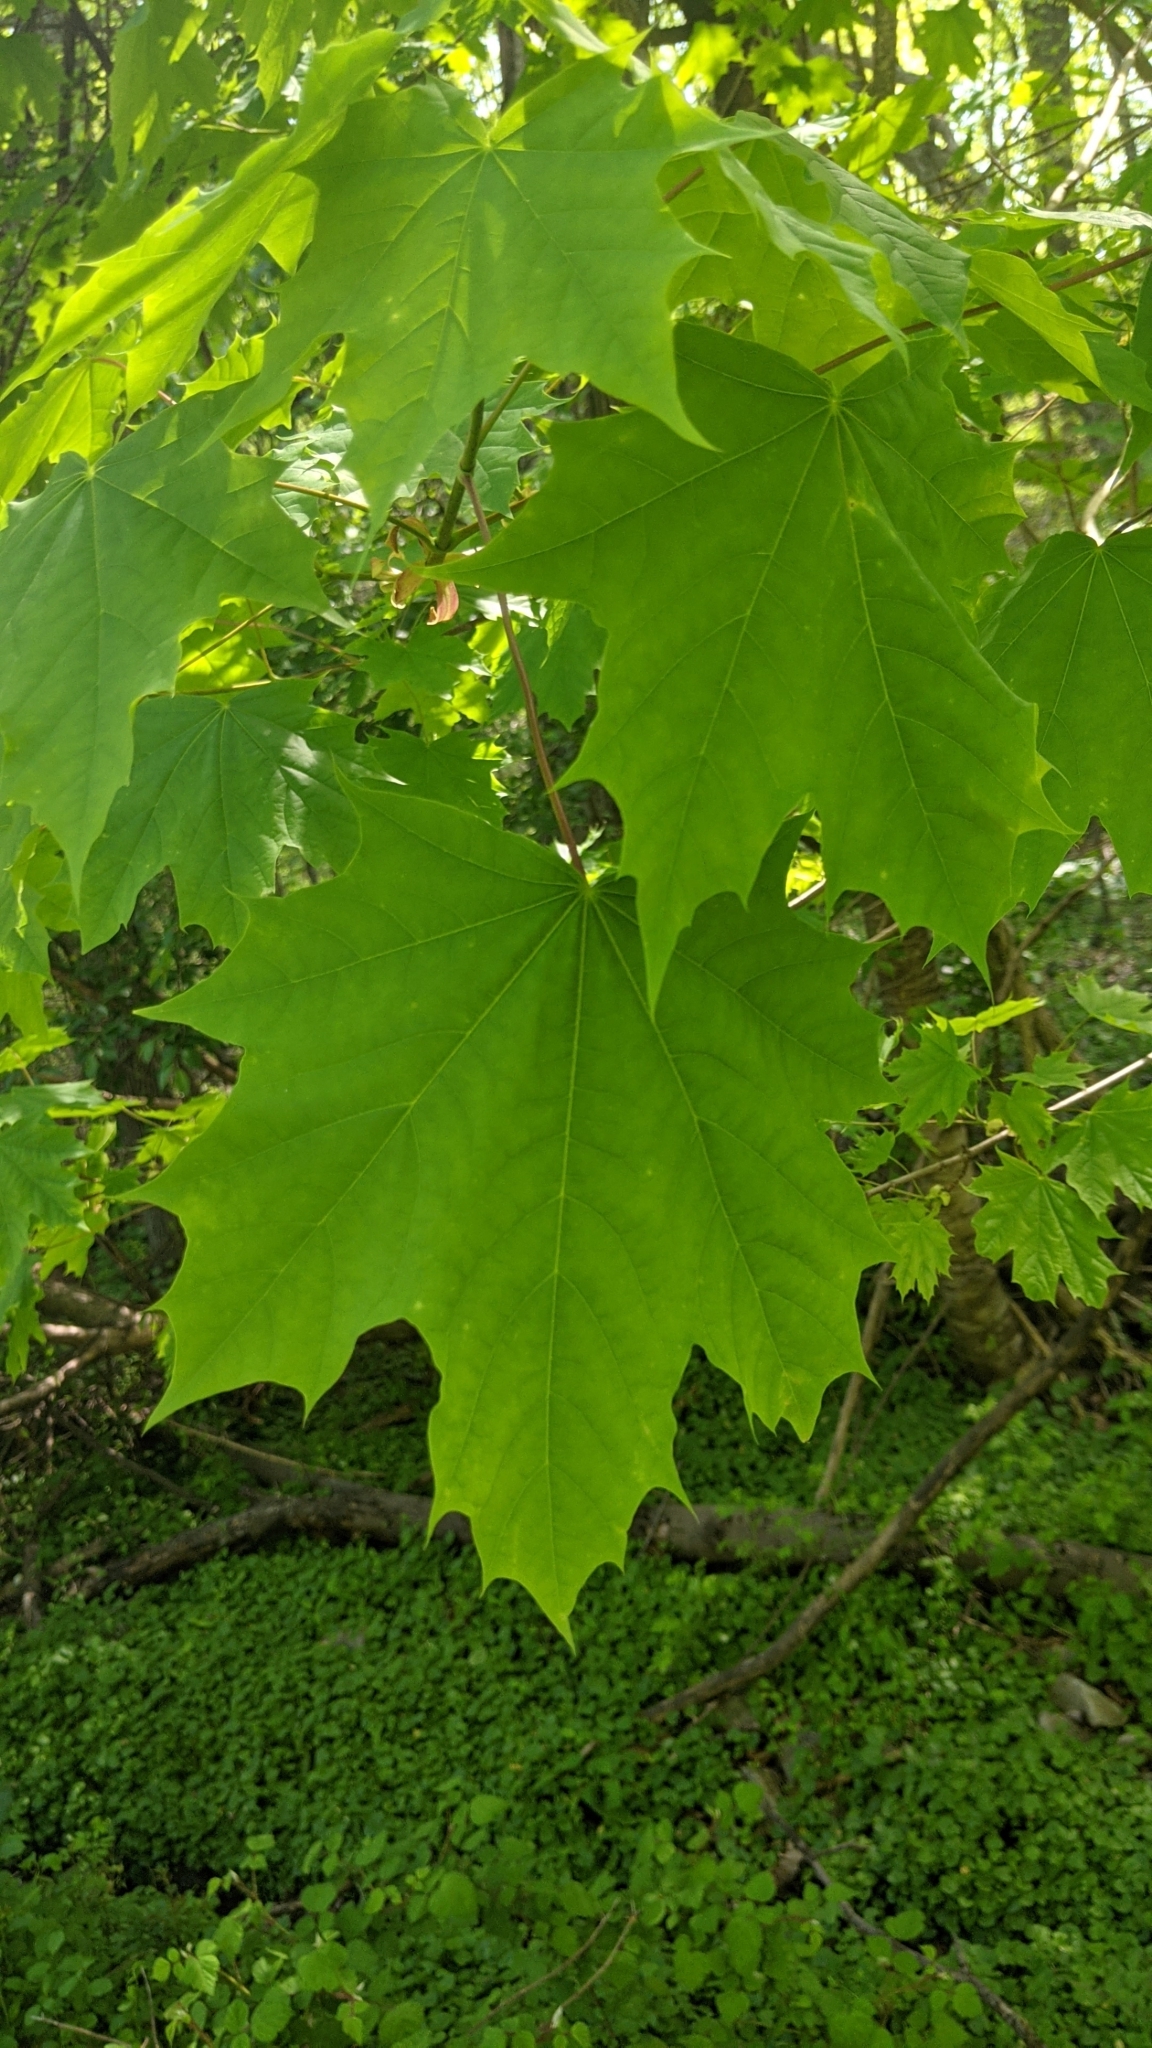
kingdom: Plantae
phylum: Tracheophyta
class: Magnoliopsida
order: Sapindales
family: Sapindaceae
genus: Acer
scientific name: Acer platanoides
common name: Norway maple
